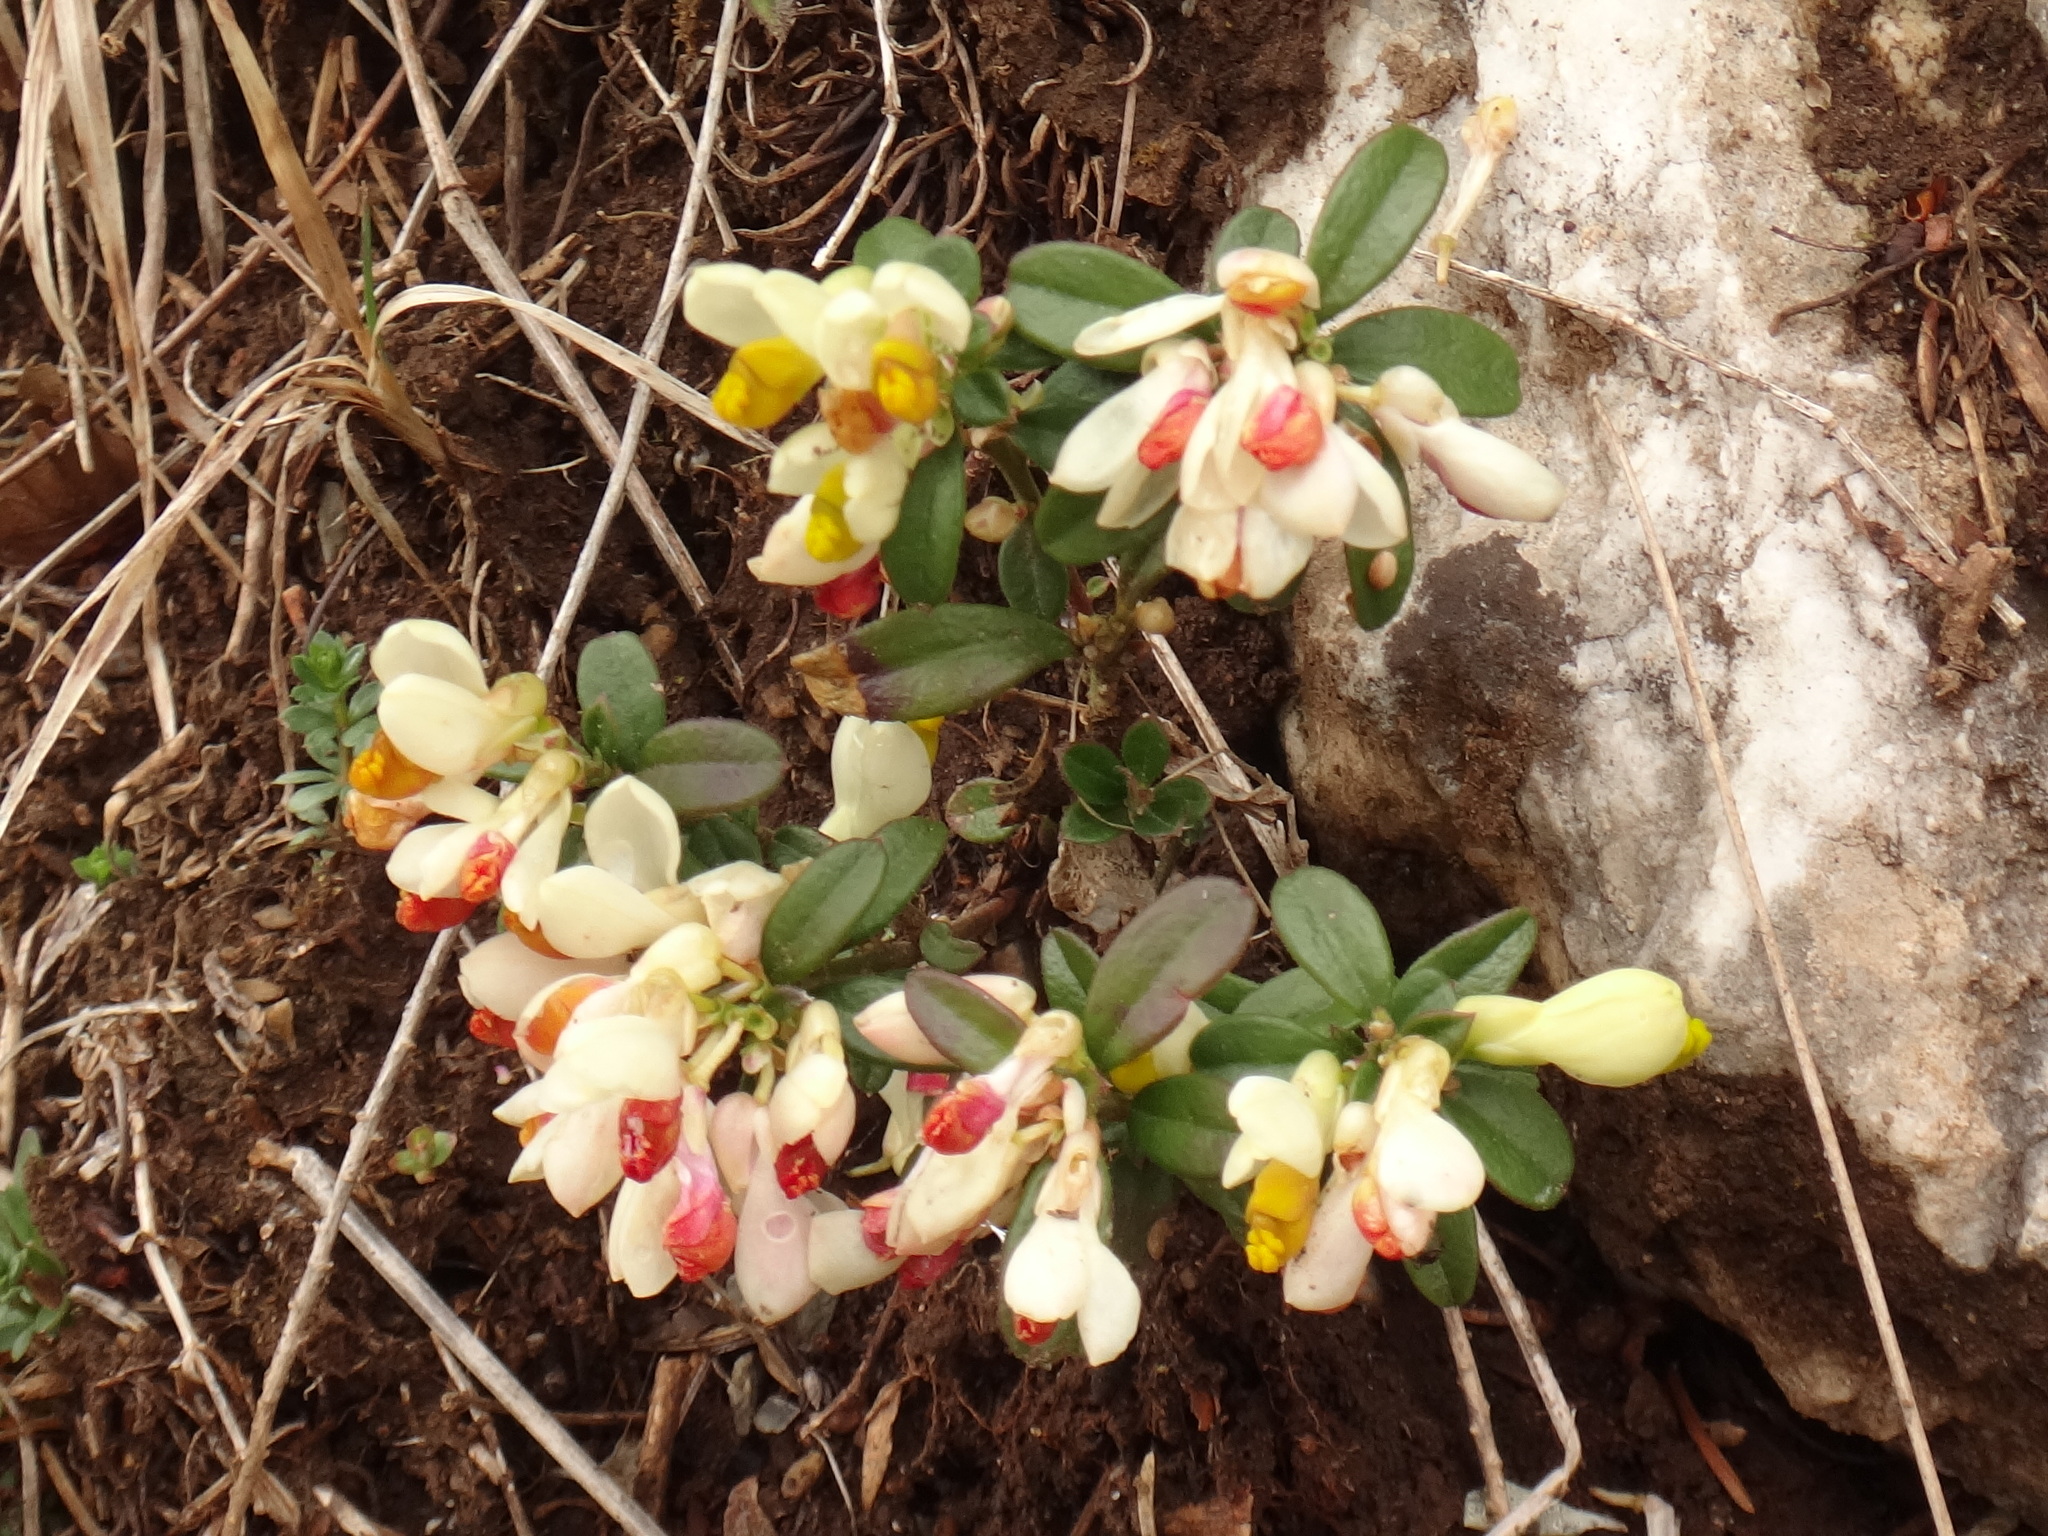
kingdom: Plantae
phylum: Tracheophyta
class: Magnoliopsida
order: Fabales
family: Polygalaceae
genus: Polygaloides
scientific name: Polygaloides chamaebuxus
